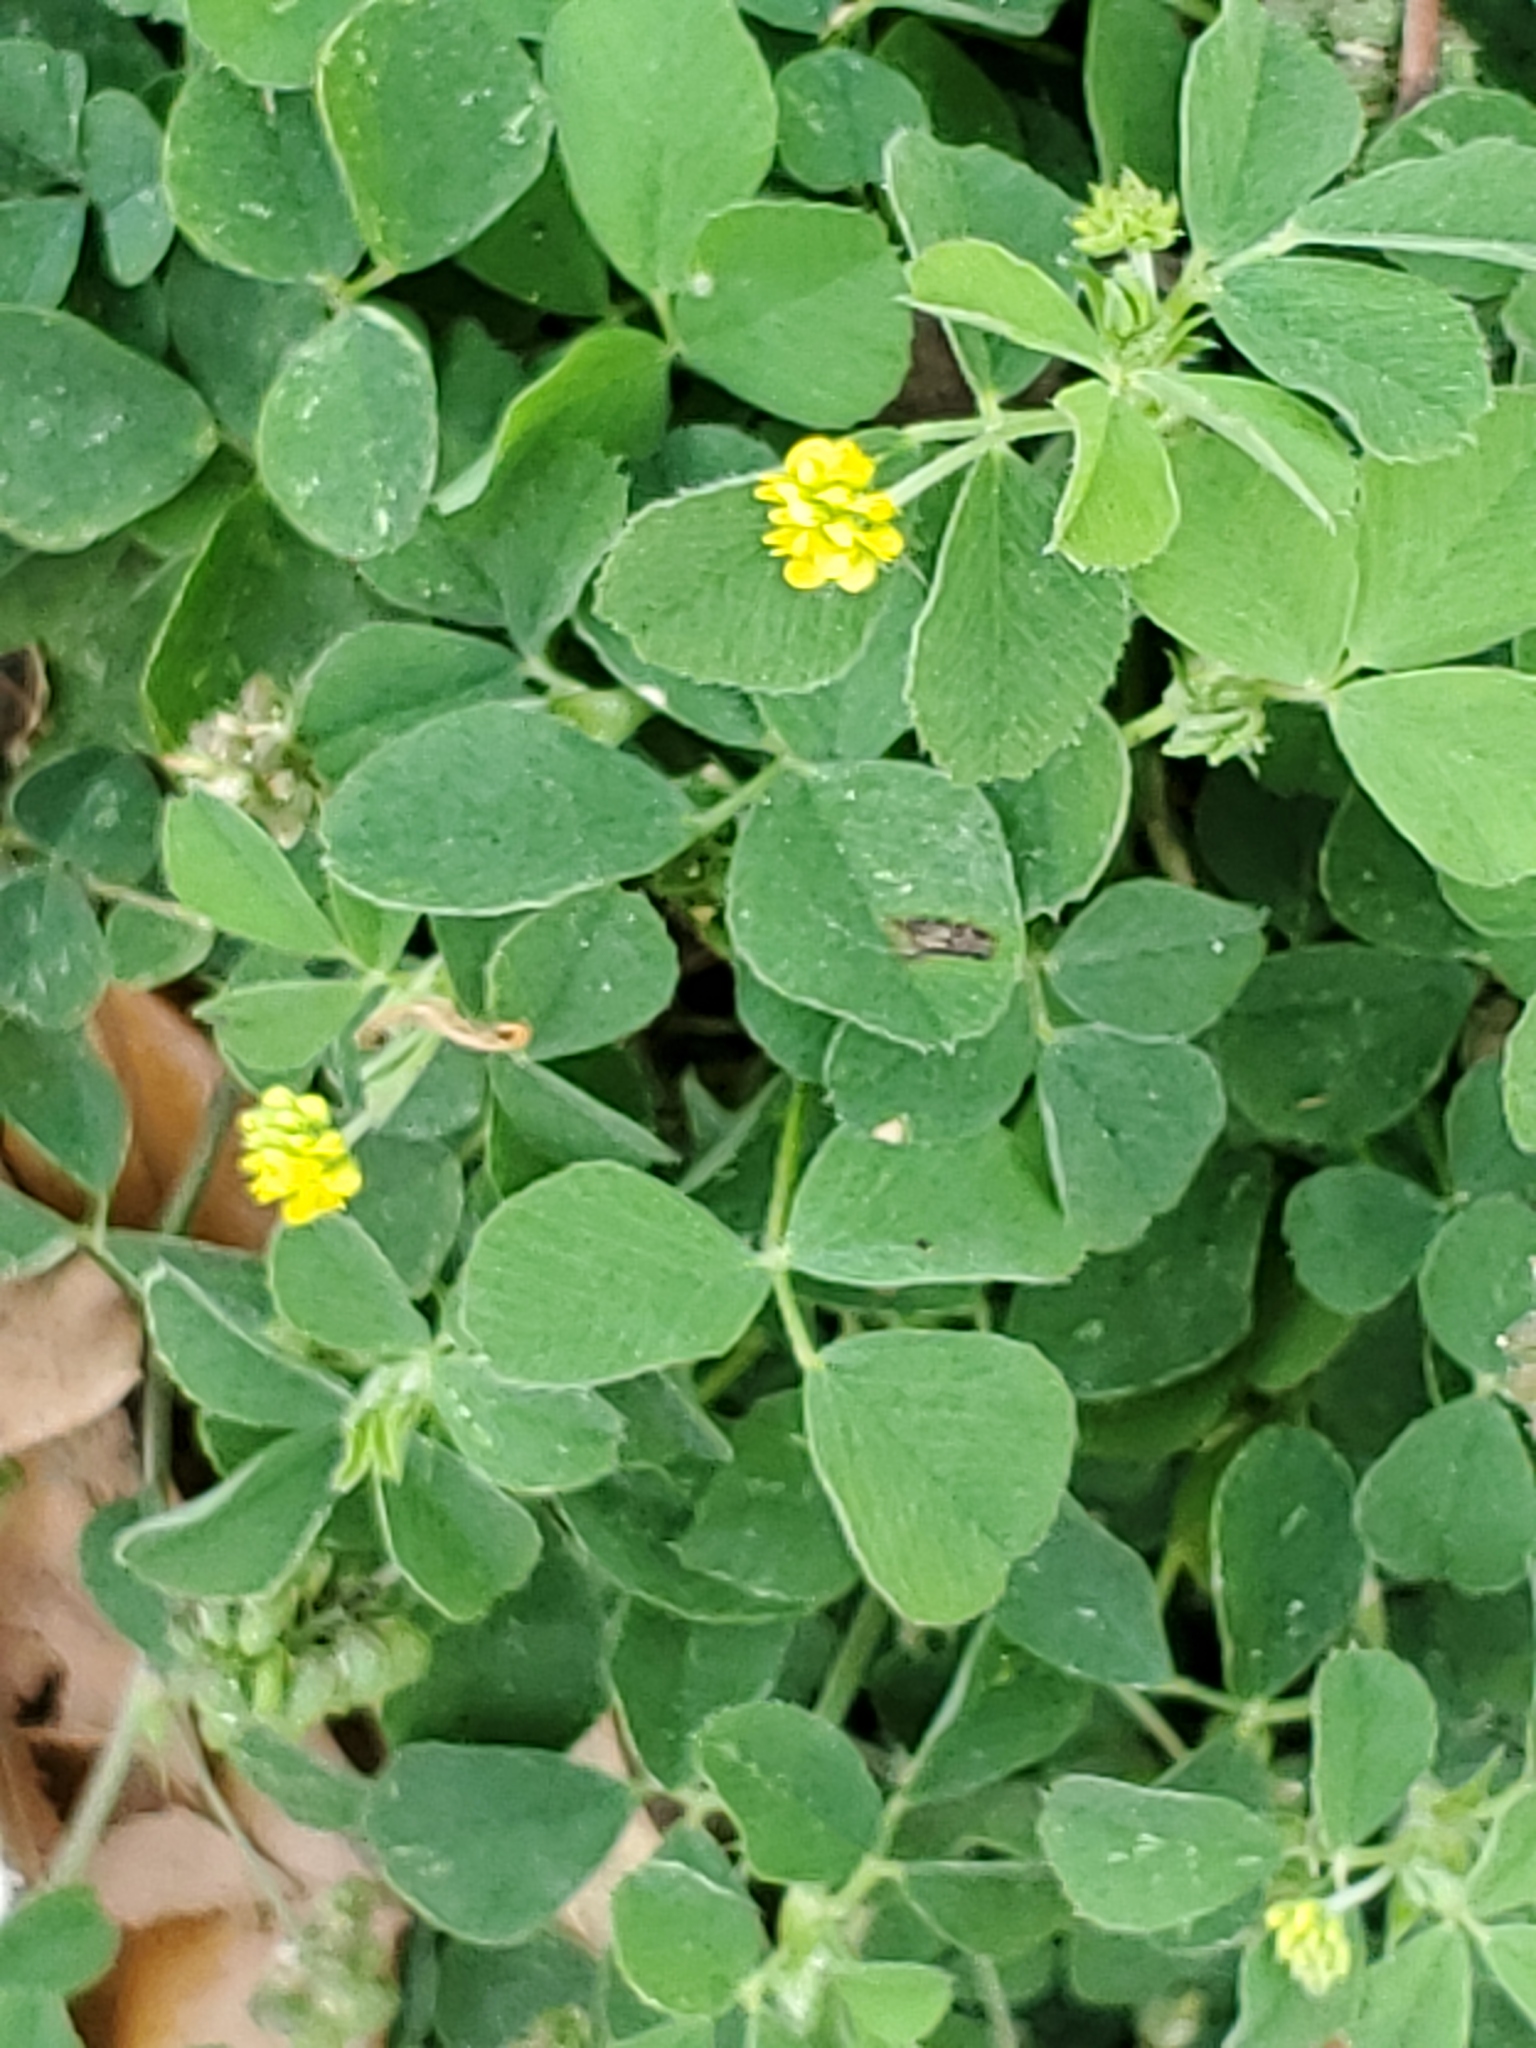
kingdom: Plantae
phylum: Tracheophyta
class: Magnoliopsida
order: Fabales
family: Fabaceae
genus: Medicago
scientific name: Medicago lupulina
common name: Black medick
